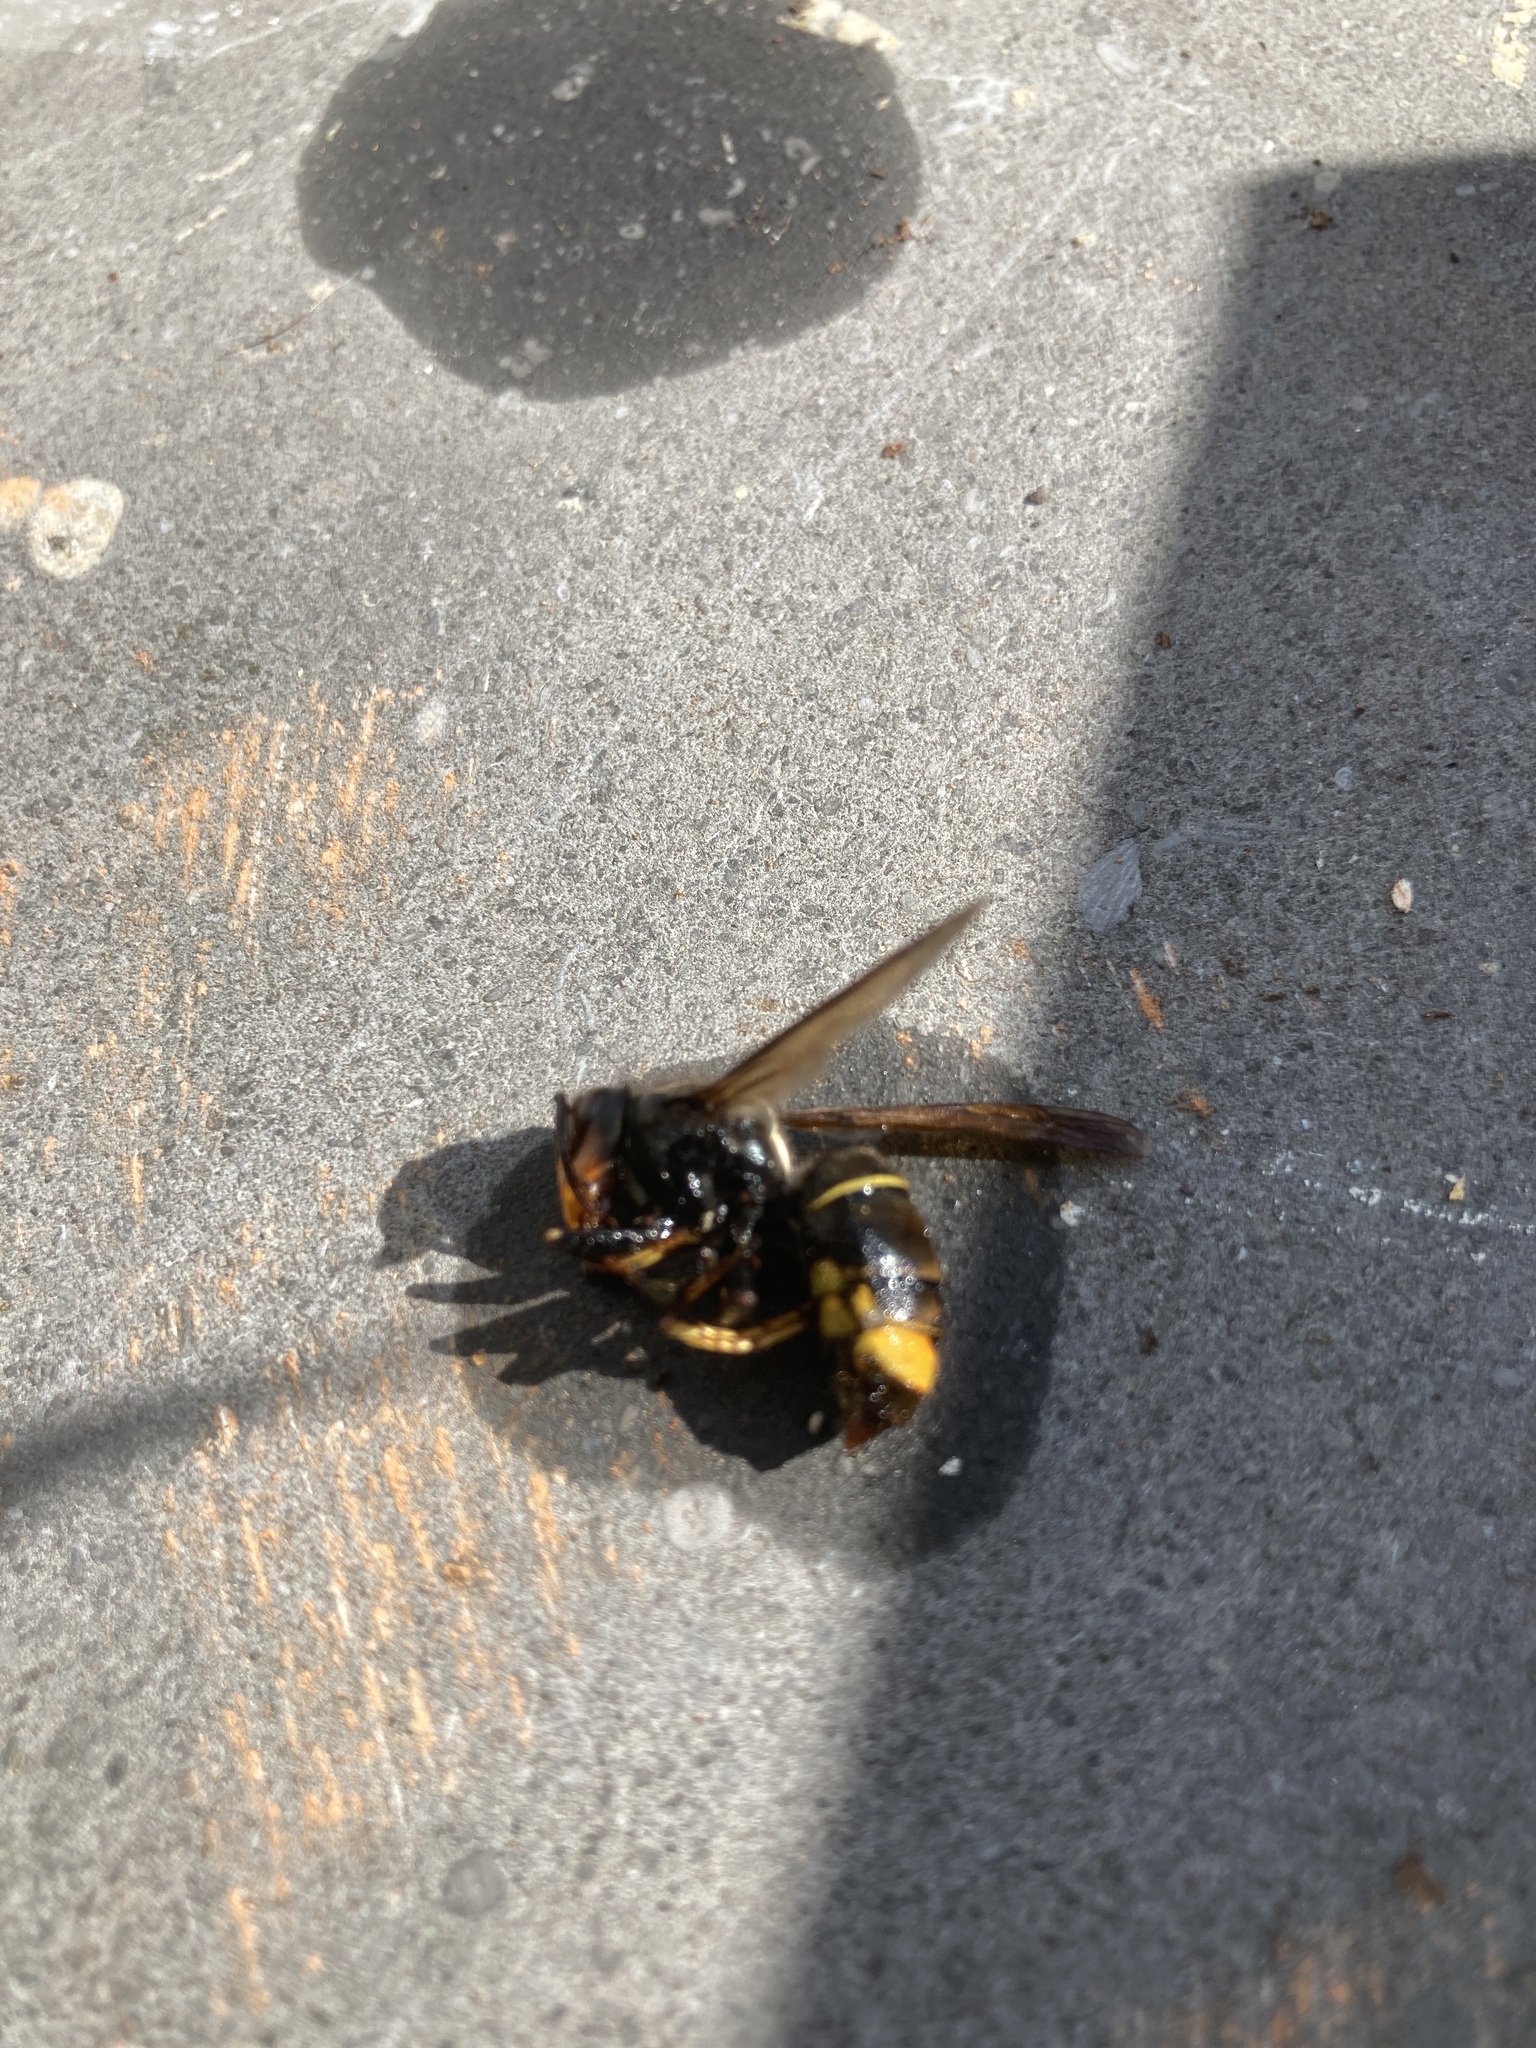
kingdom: Animalia
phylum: Arthropoda
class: Insecta
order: Hymenoptera
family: Vespidae
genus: Vespa
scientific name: Vespa velutina
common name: Asian hornet
